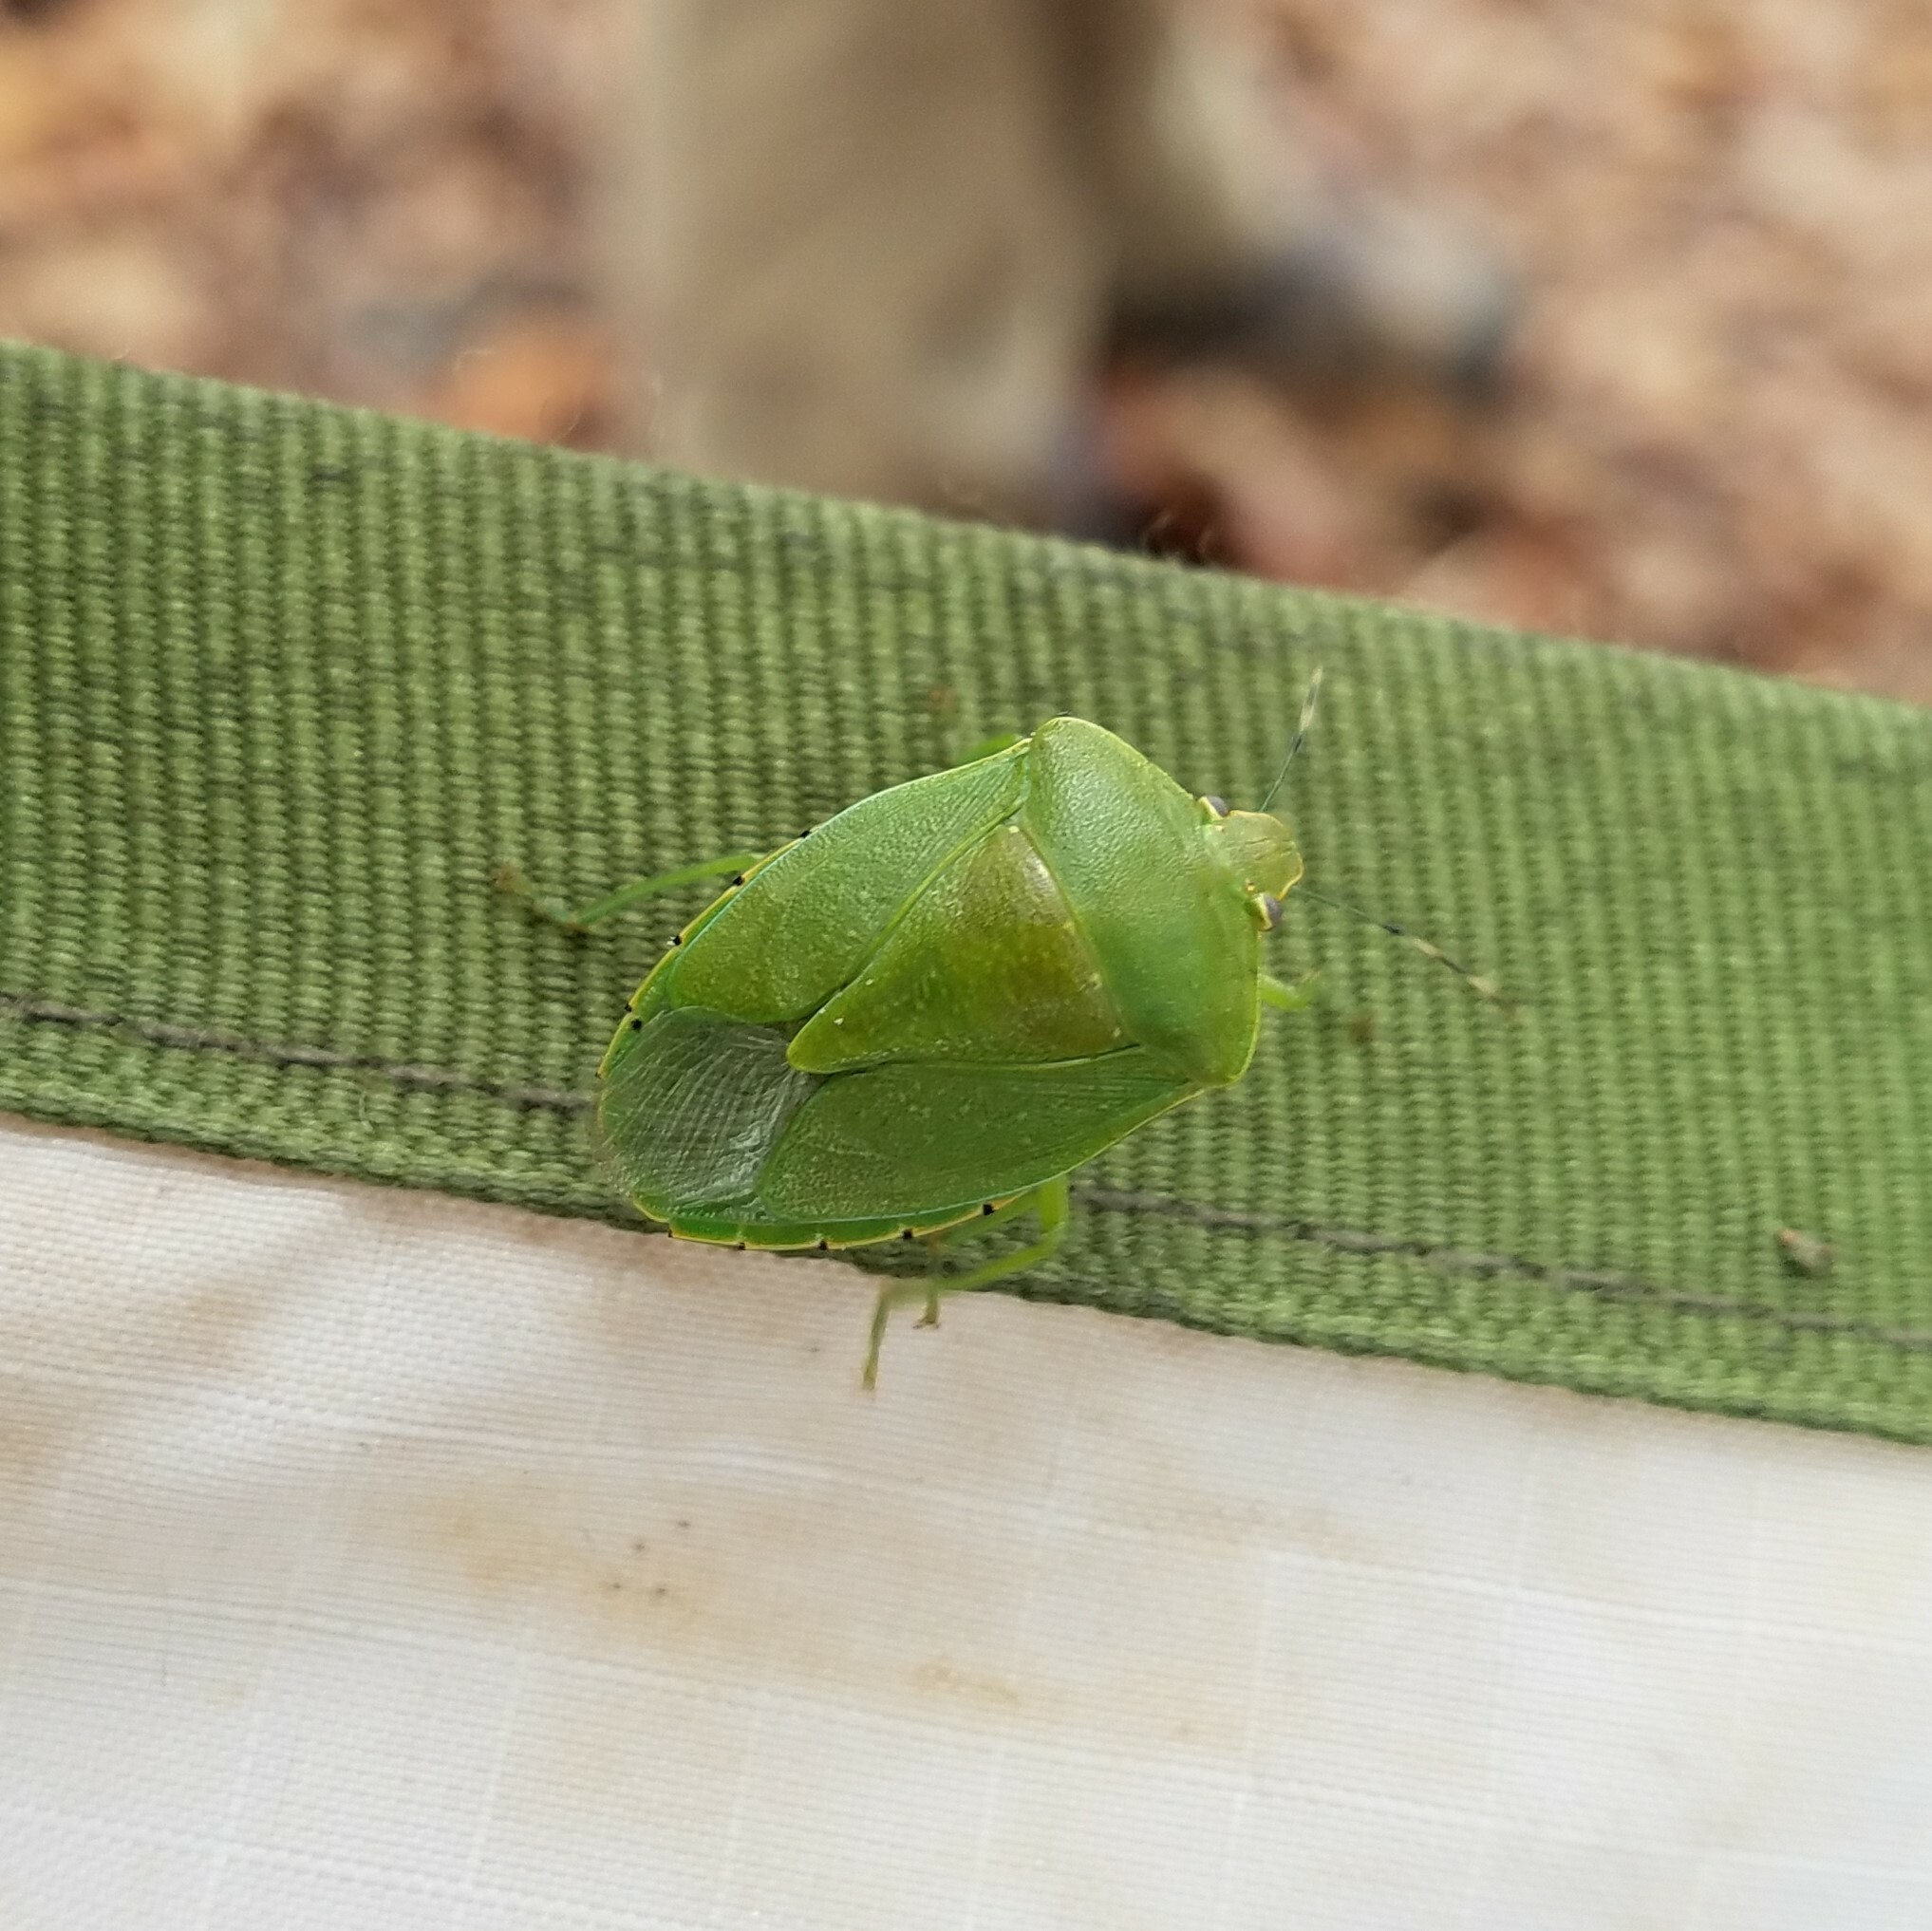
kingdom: Animalia
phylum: Arthropoda
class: Insecta
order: Hemiptera
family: Pentatomidae
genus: Chinavia
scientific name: Chinavia hilaris
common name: Green stink bug
